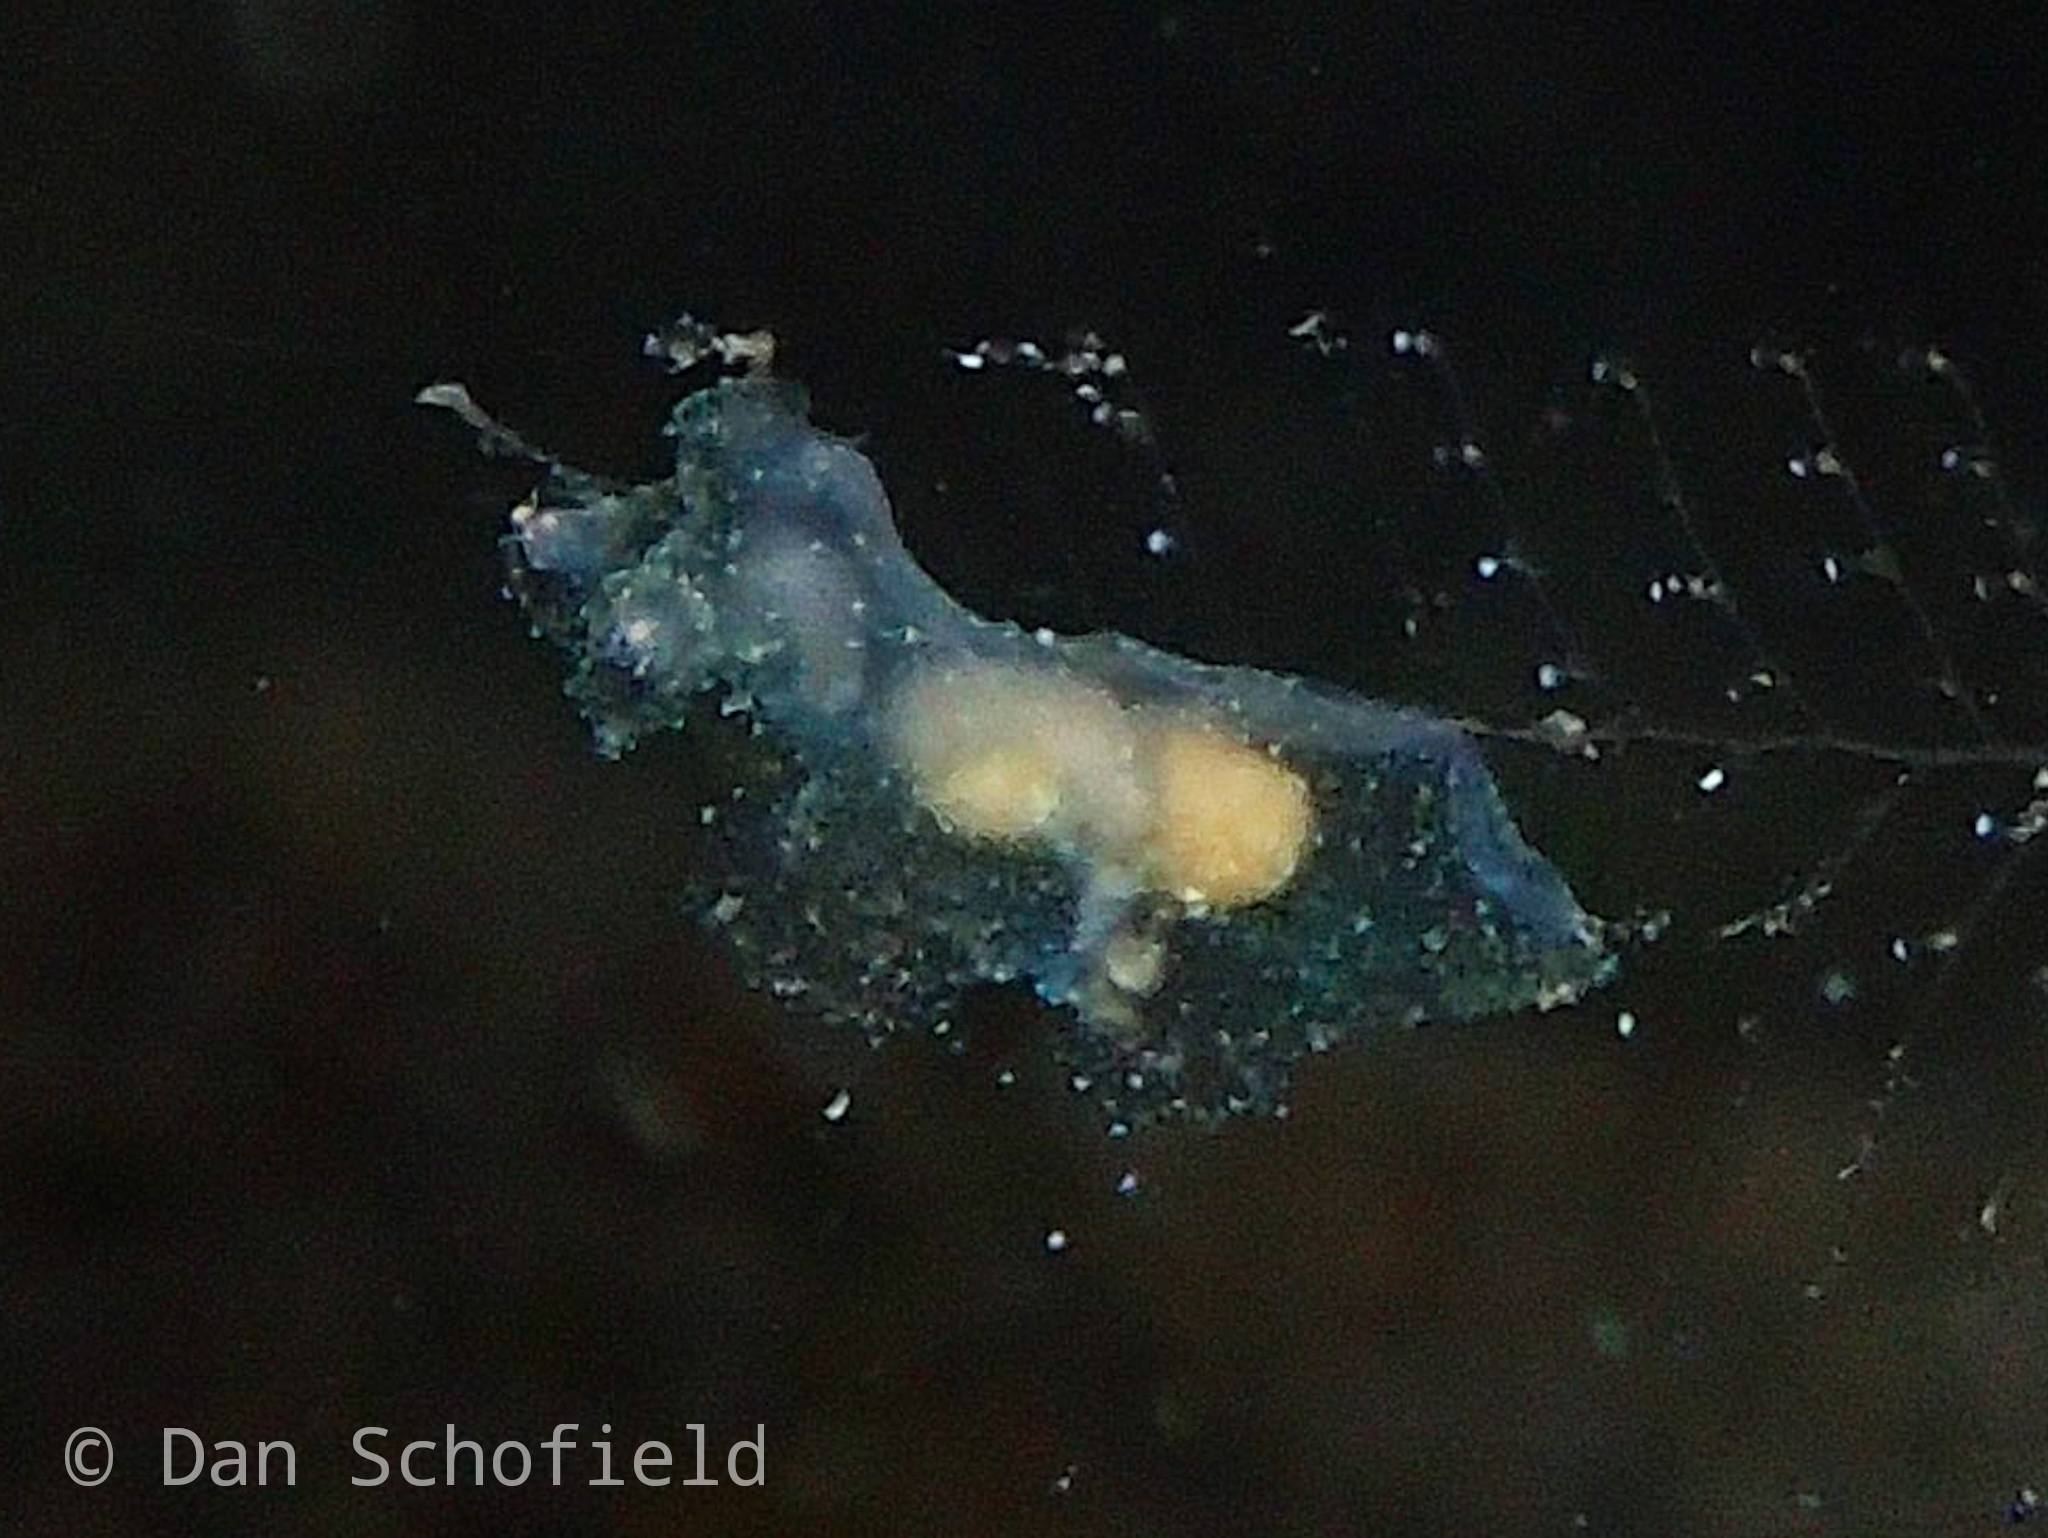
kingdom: Animalia
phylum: Mollusca
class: Gastropoda
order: Nudibranchia
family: Scyllaeidae
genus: Notobryon
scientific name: Notobryon wardi
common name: Iridescent nudibranch
